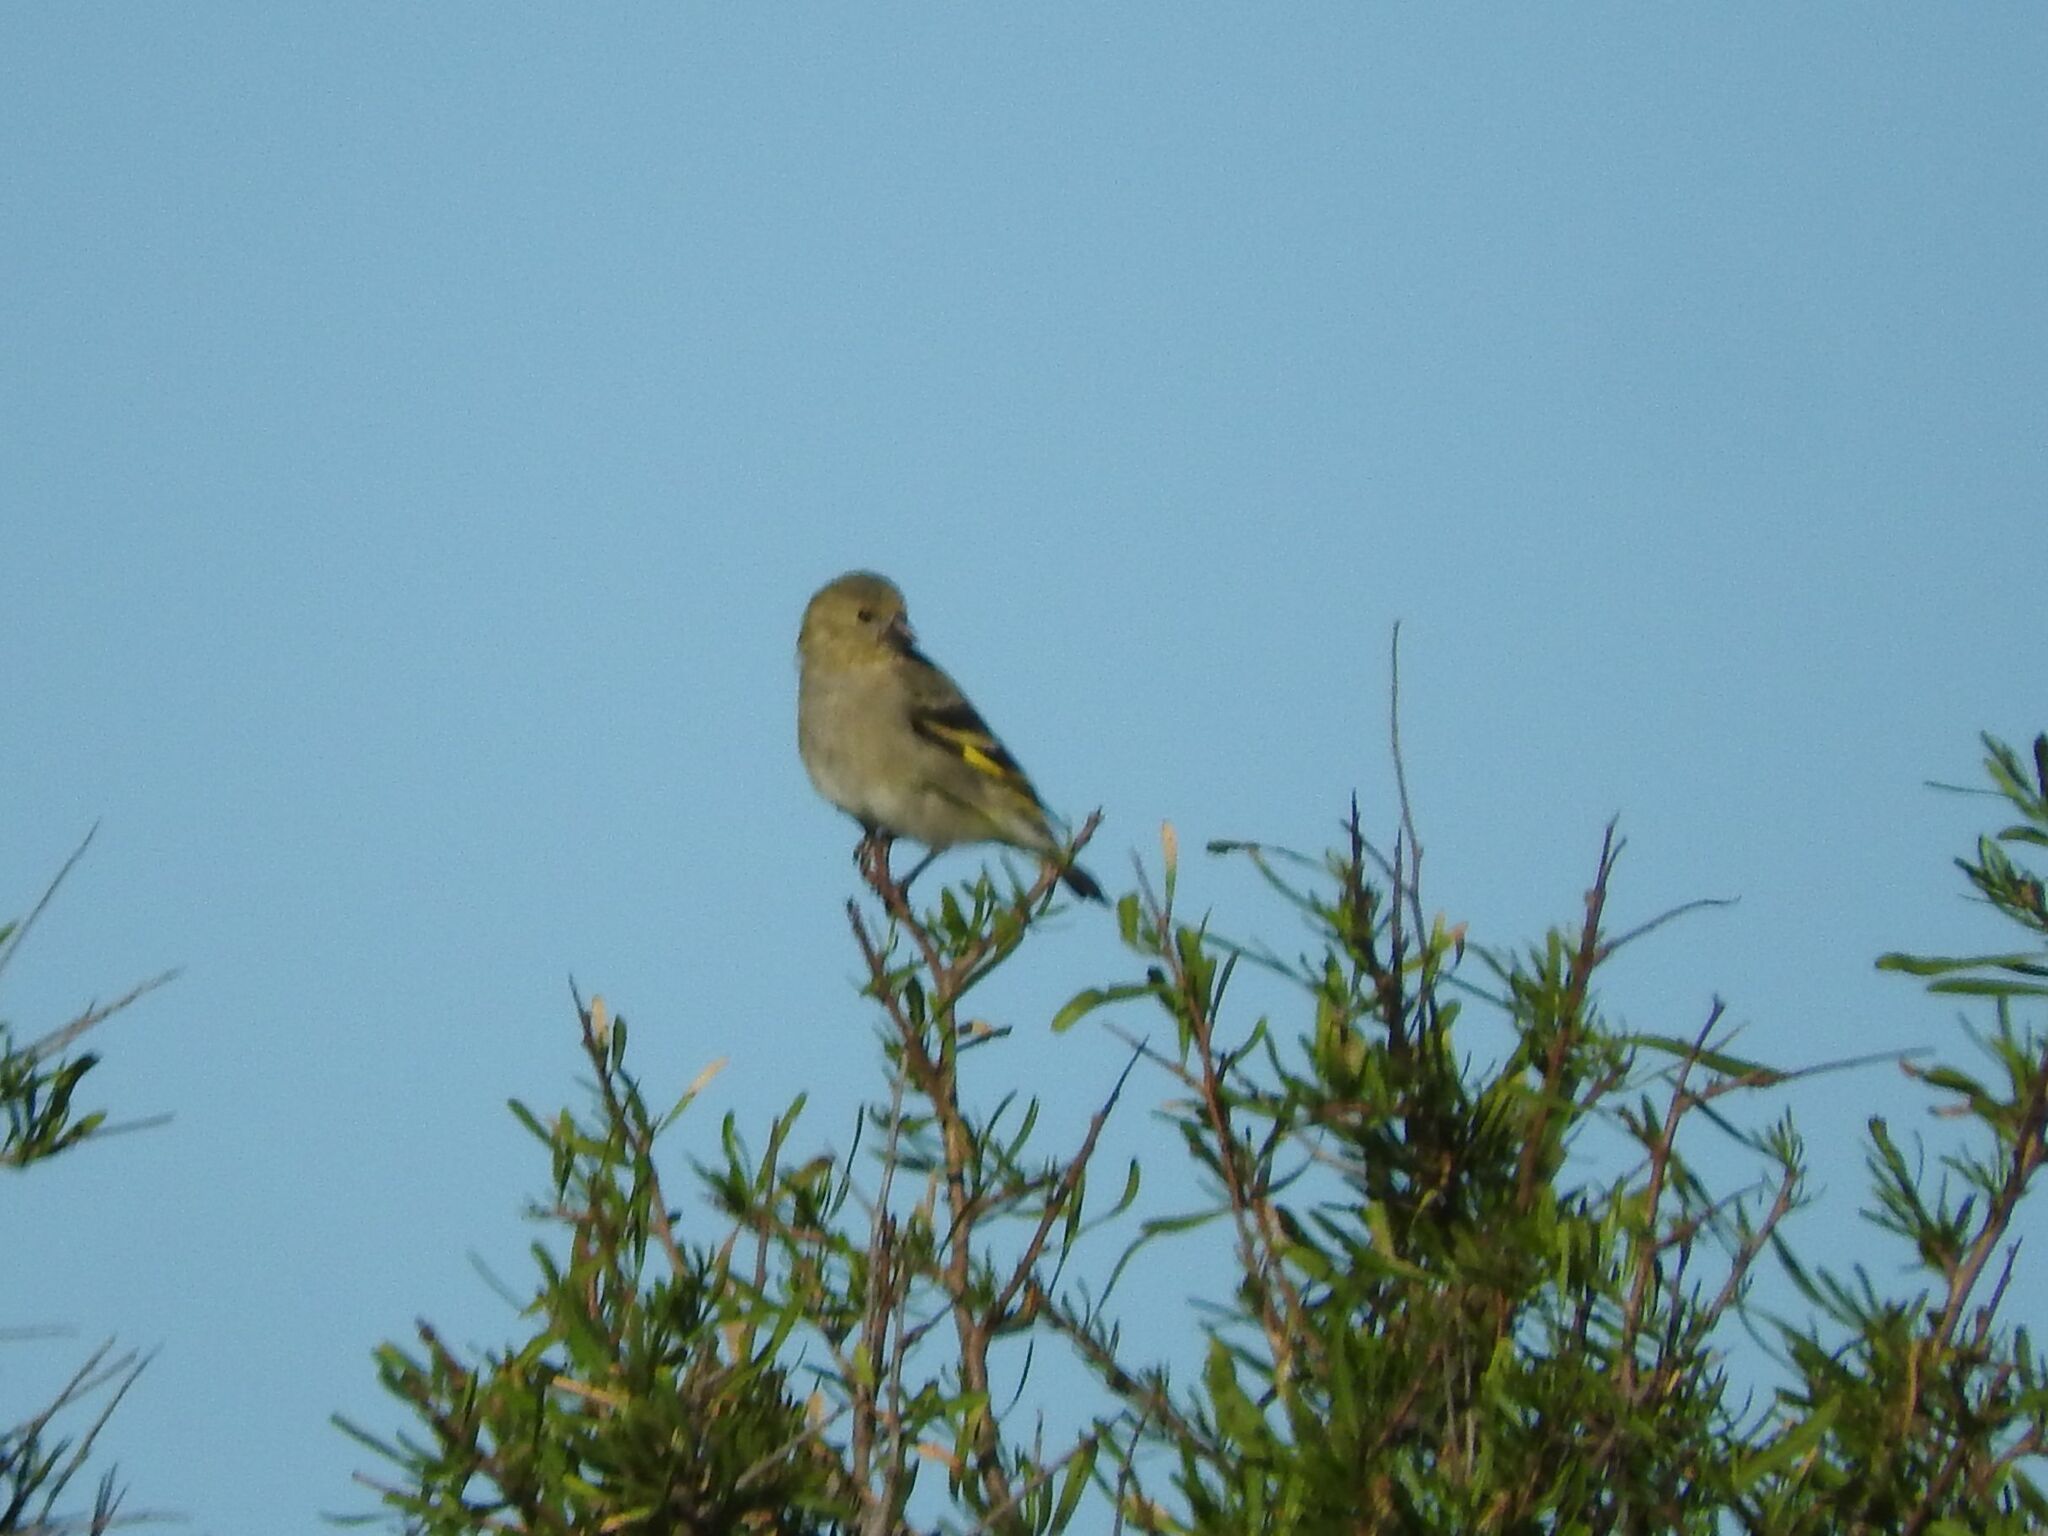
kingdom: Animalia
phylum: Chordata
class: Aves
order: Passeriformes
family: Fringillidae
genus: Spinus
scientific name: Spinus magellanicus
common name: Hooded siskin
